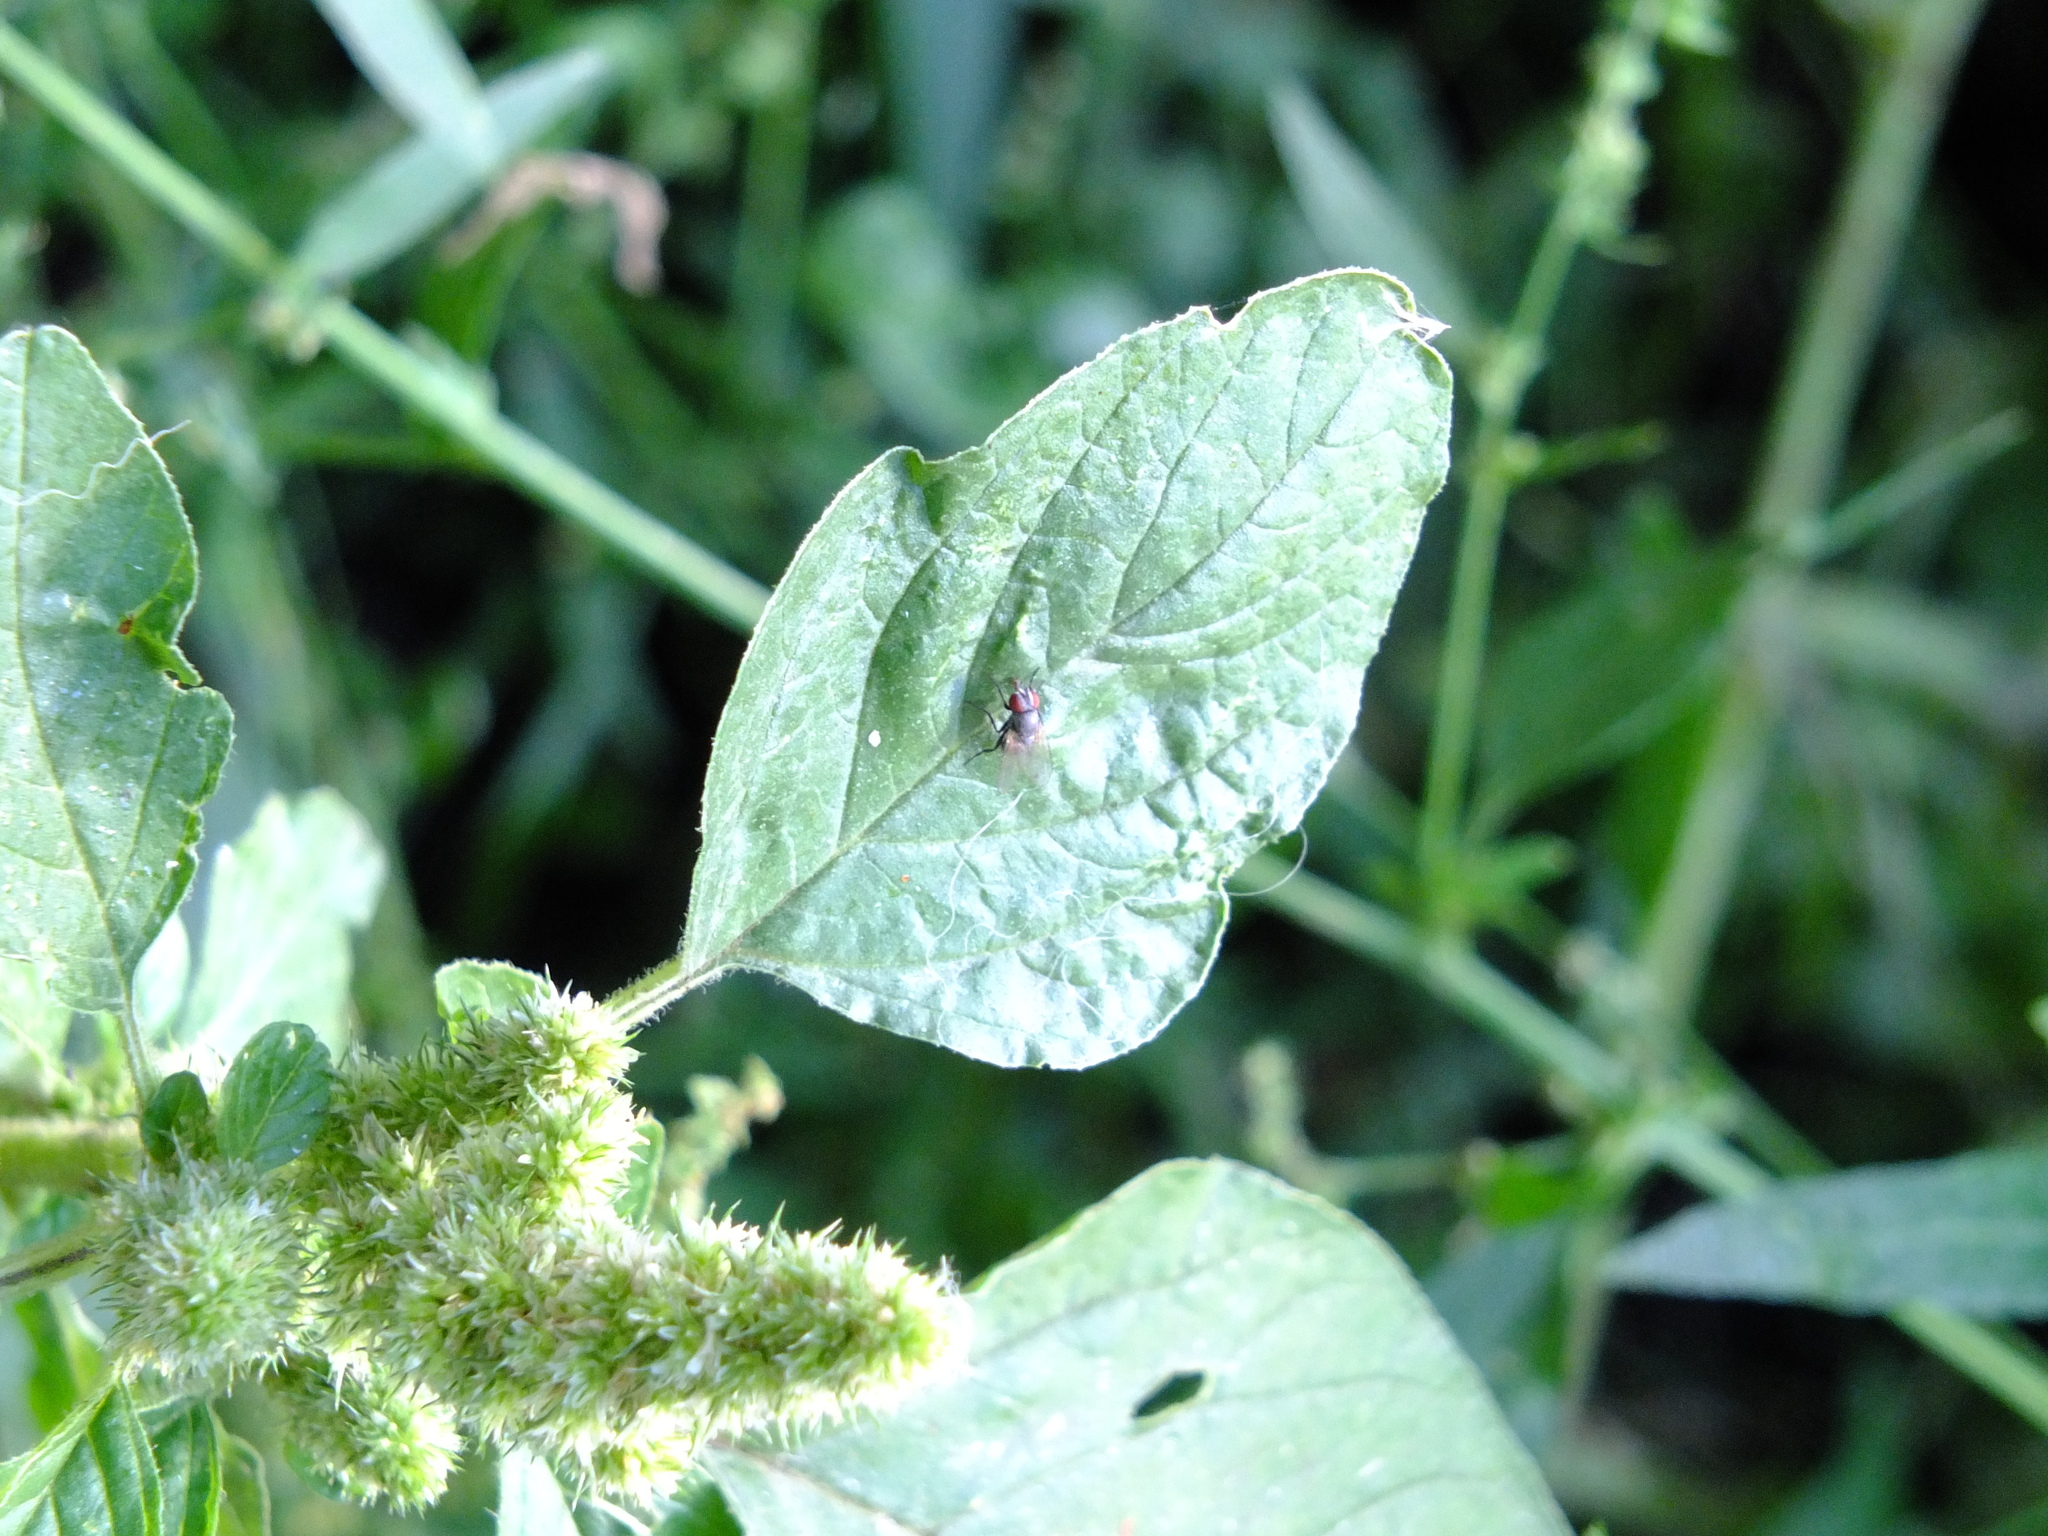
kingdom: Plantae
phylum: Tracheophyta
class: Magnoliopsida
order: Caryophyllales
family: Amaranthaceae
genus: Amaranthus
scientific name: Amaranthus retroflexus
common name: Redroot amaranth
